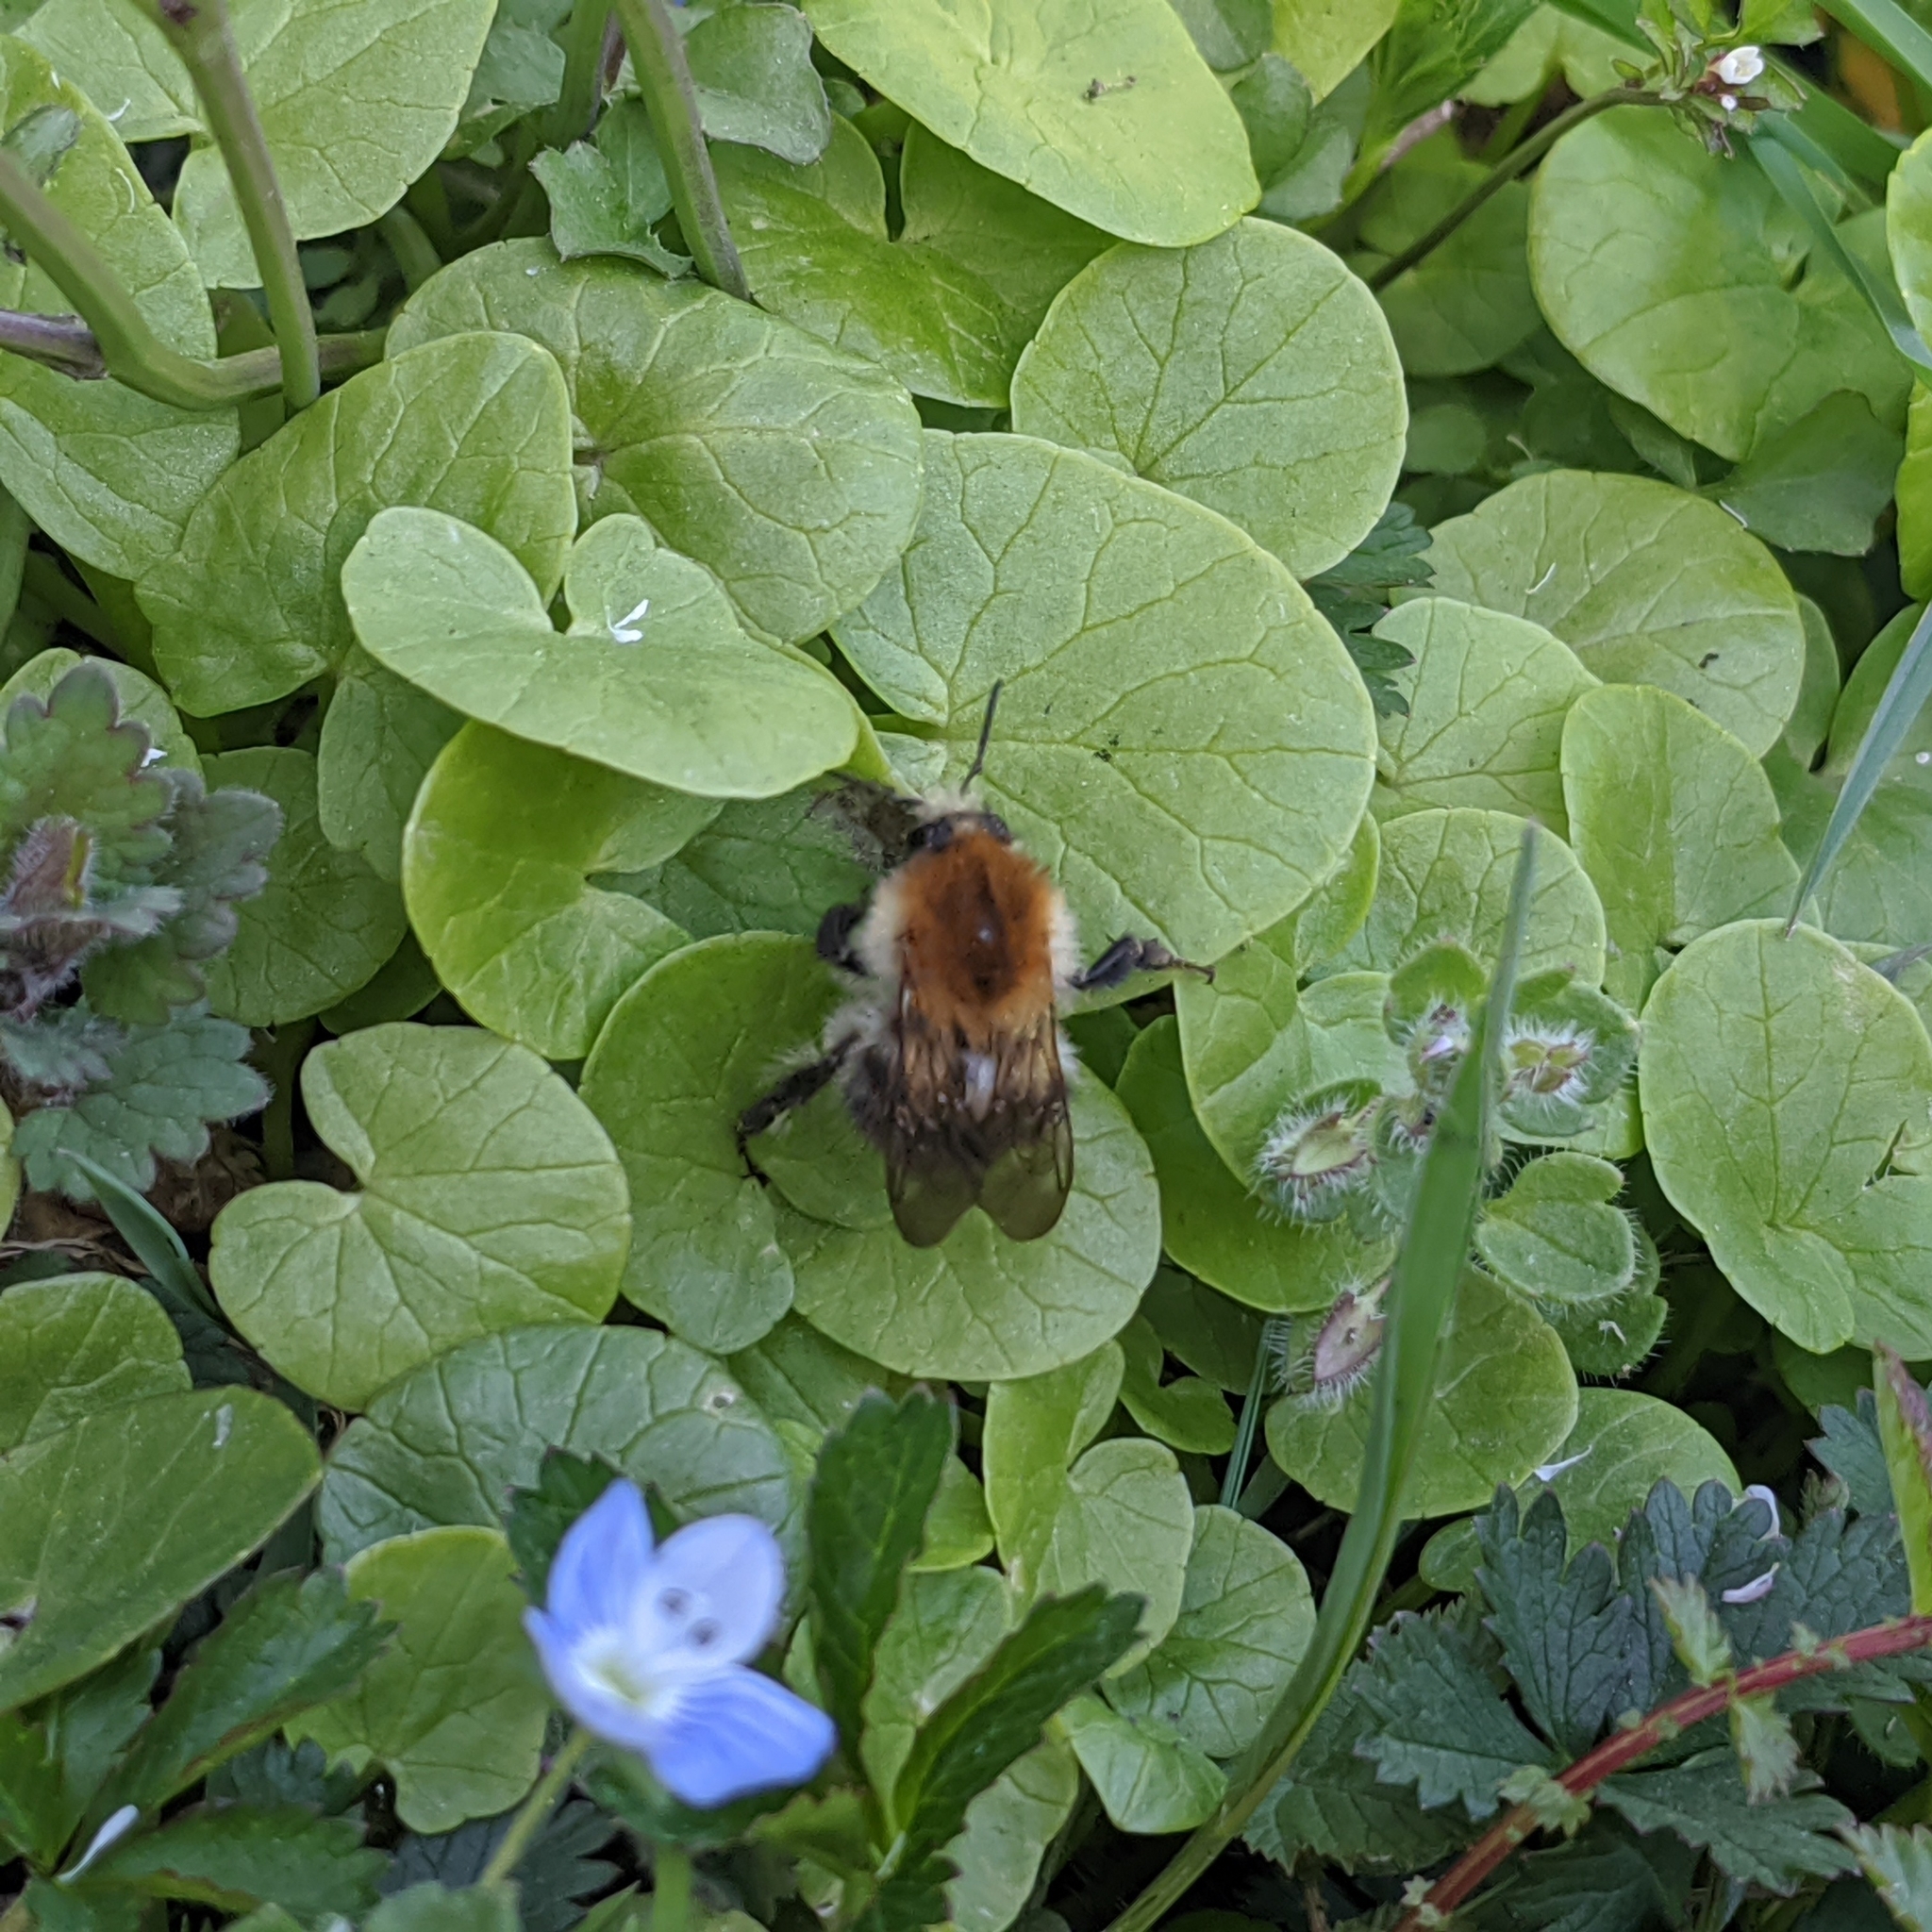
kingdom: Animalia
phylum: Arthropoda
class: Insecta
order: Hymenoptera
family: Apidae
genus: Bombus
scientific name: Bombus pascuorum
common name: Common carder bee
